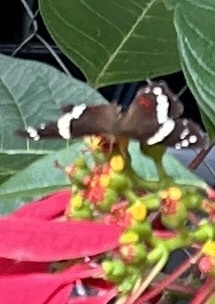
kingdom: Animalia
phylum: Arthropoda
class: Insecta
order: Lepidoptera
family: Nymphalidae
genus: Anartia
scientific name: Anartia fatima
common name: Banded peacock
